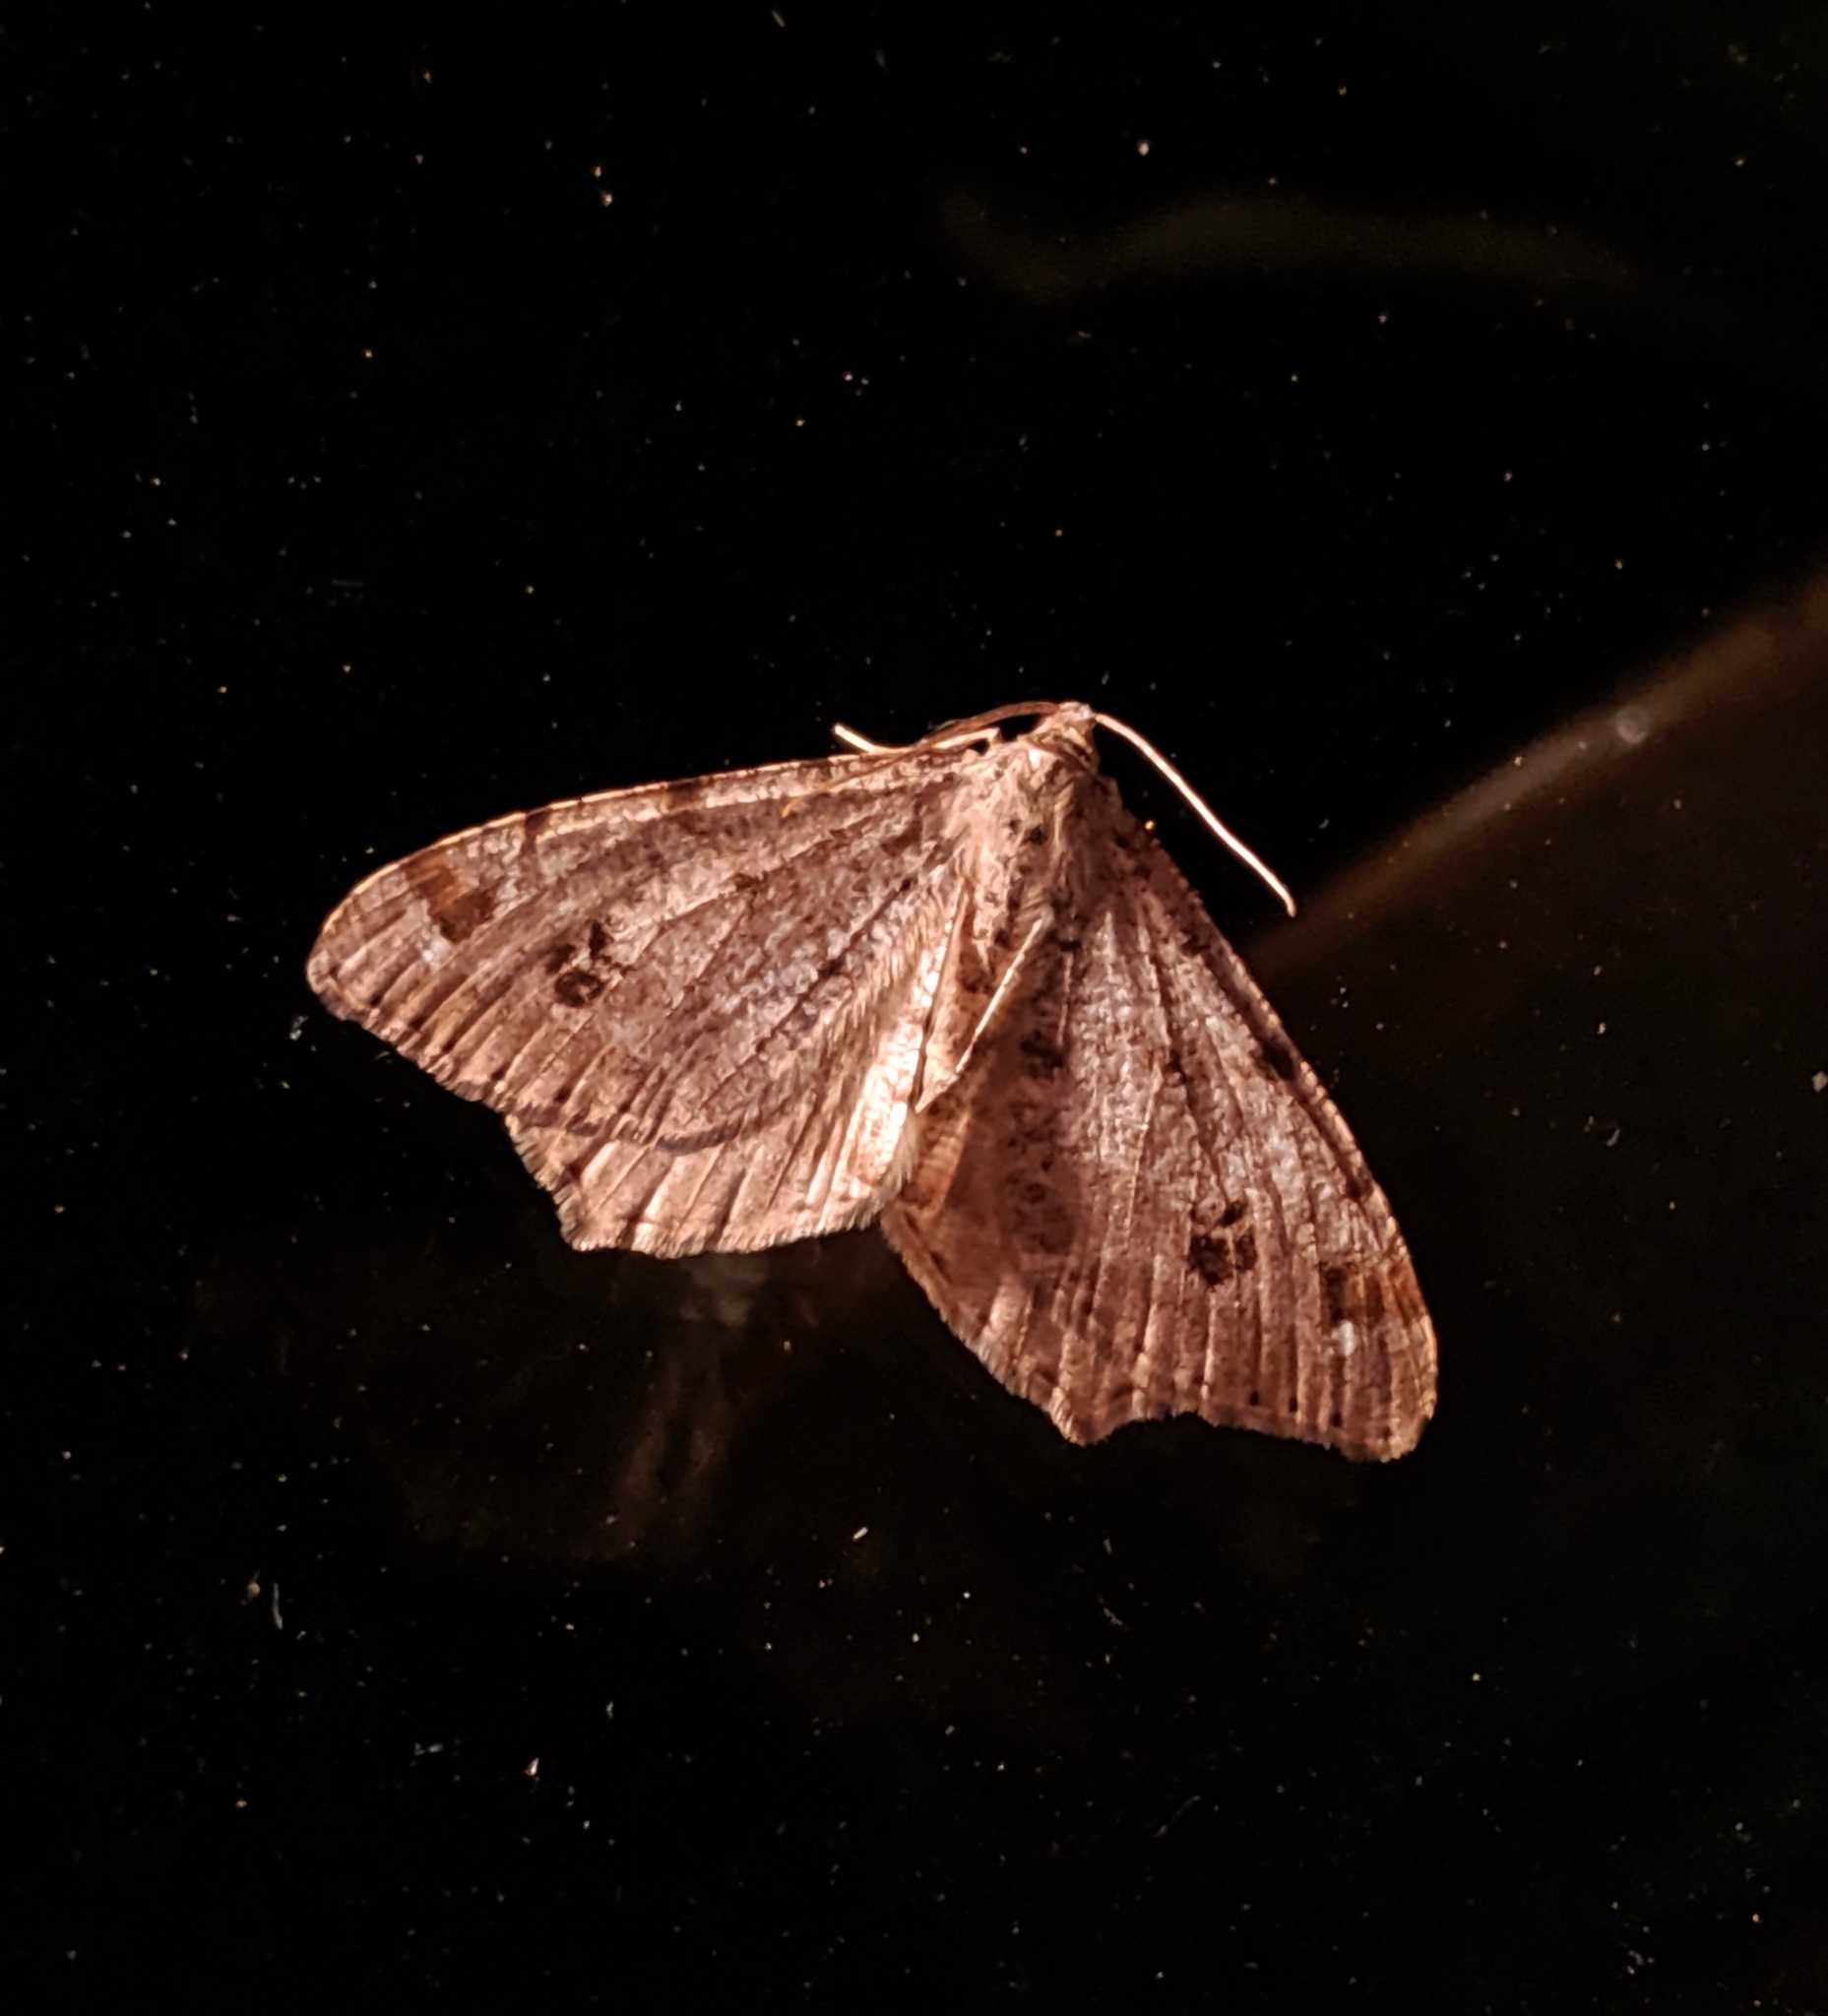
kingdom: Animalia
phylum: Arthropoda
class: Insecta
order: Lepidoptera
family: Geometridae
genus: Macaria
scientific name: Macaria signaria
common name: Dusky peacock
